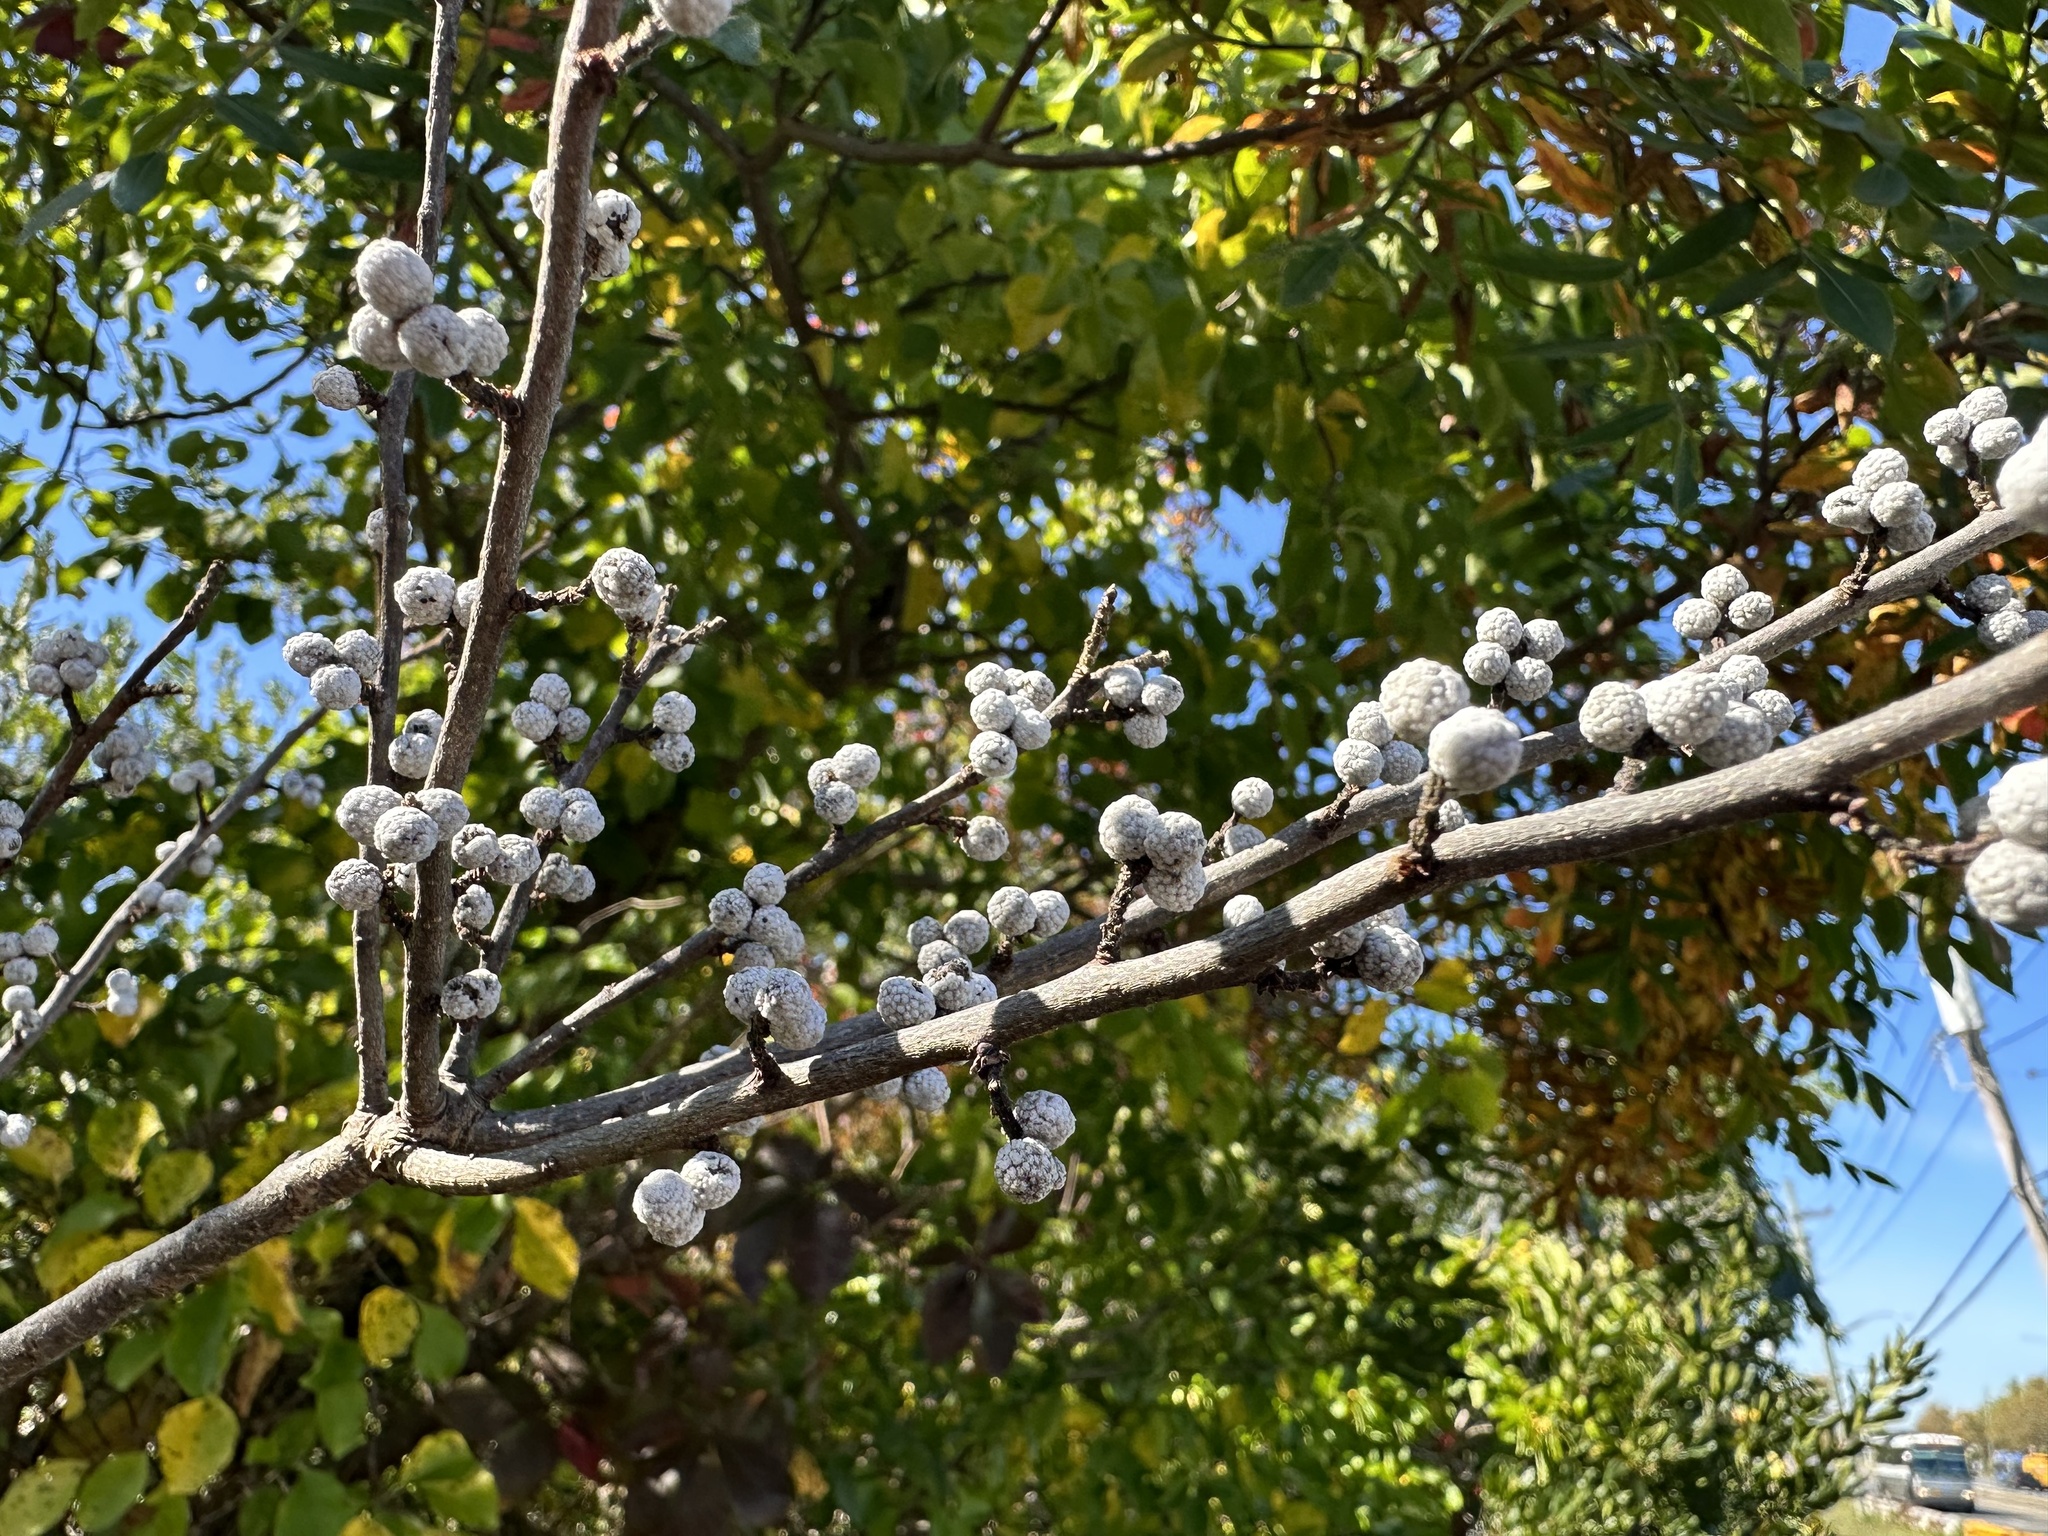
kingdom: Plantae
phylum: Tracheophyta
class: Magnoliopsida
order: Fagales
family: Myricaceae
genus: Morella
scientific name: Morella pensylvanica
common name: Northern bayberry
